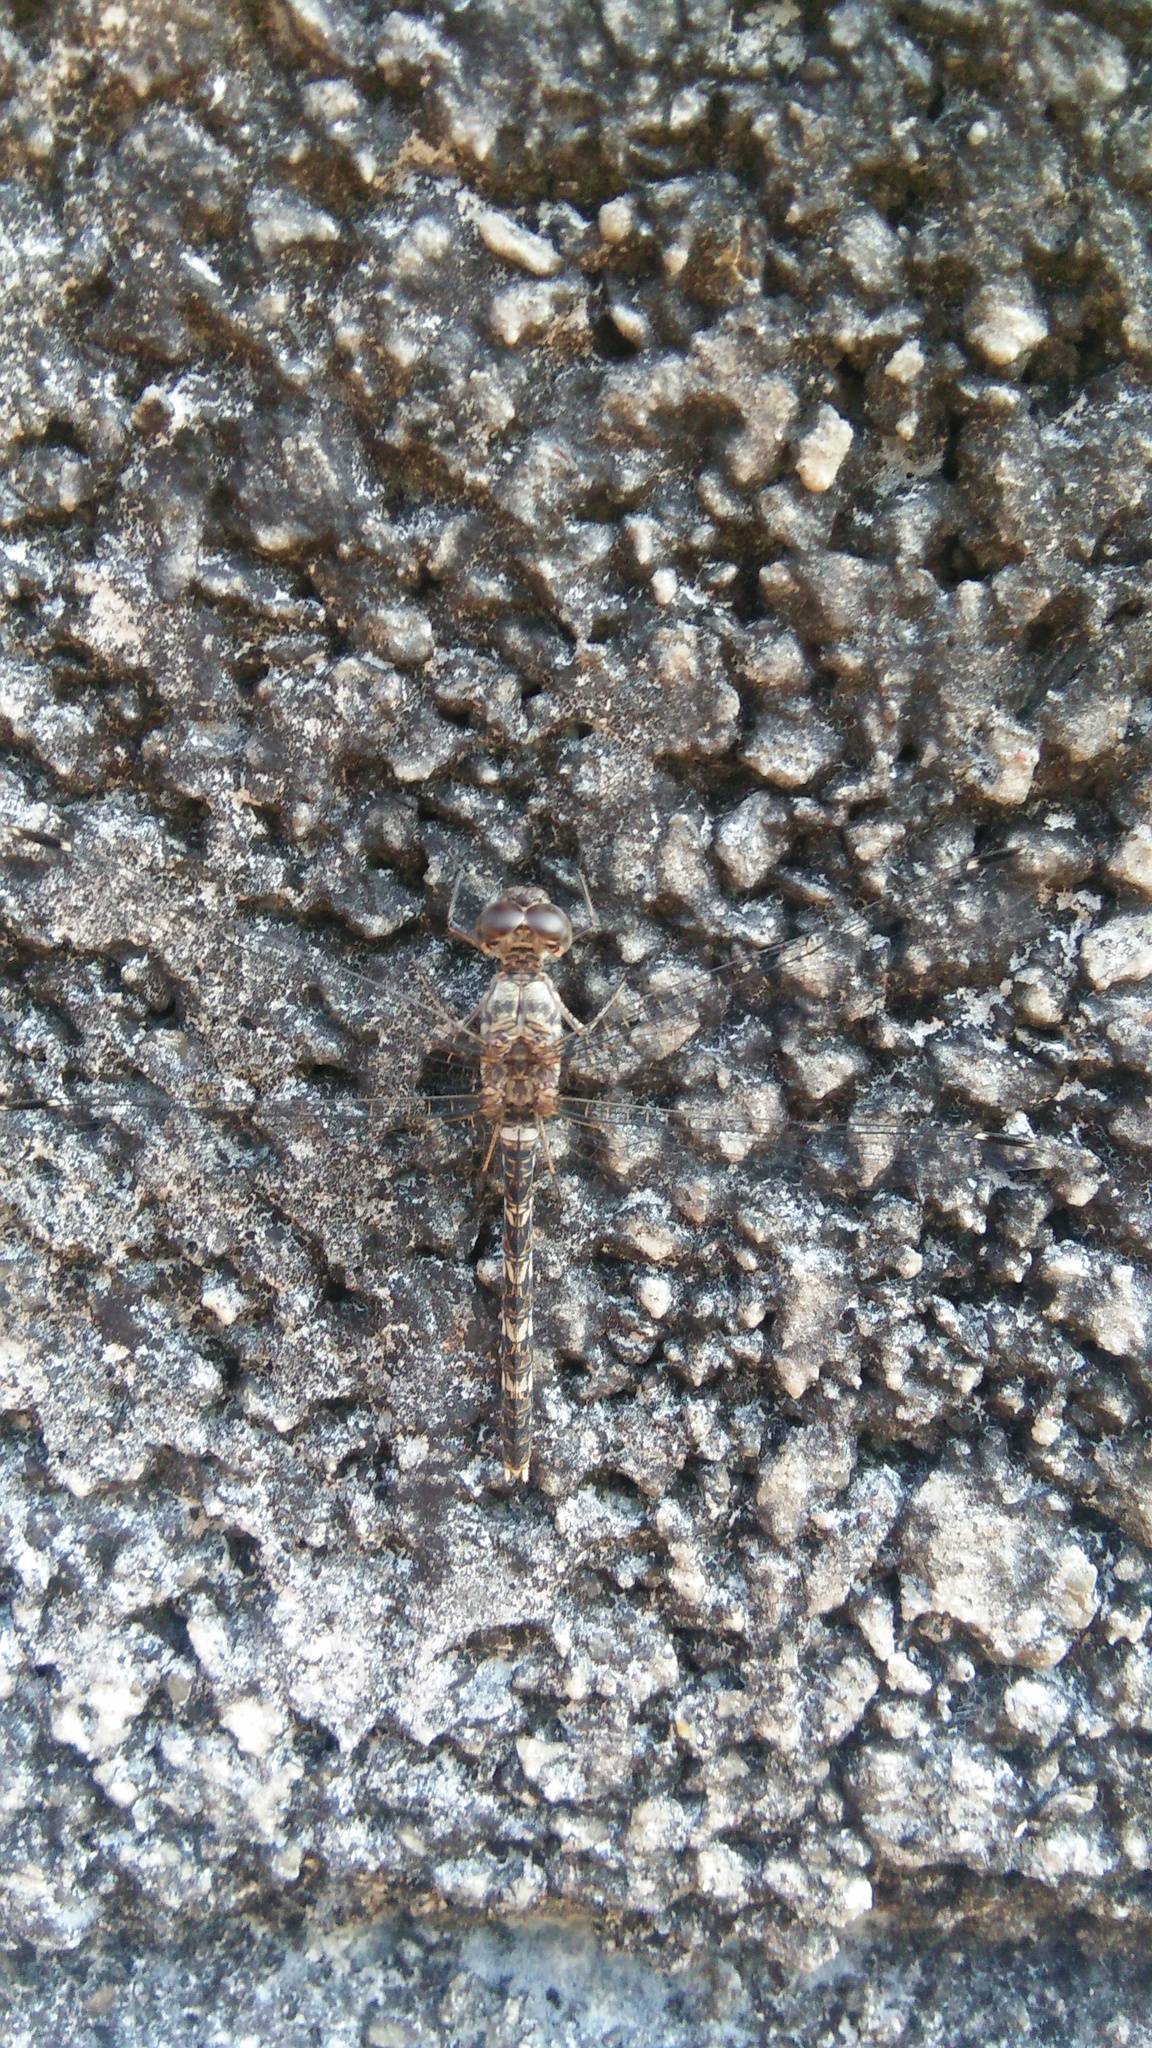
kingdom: Animalia
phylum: Arthropoda
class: Insecta
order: Odonata
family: Libellulidae
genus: Bradinopyga
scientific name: Bradinopyga geminata
